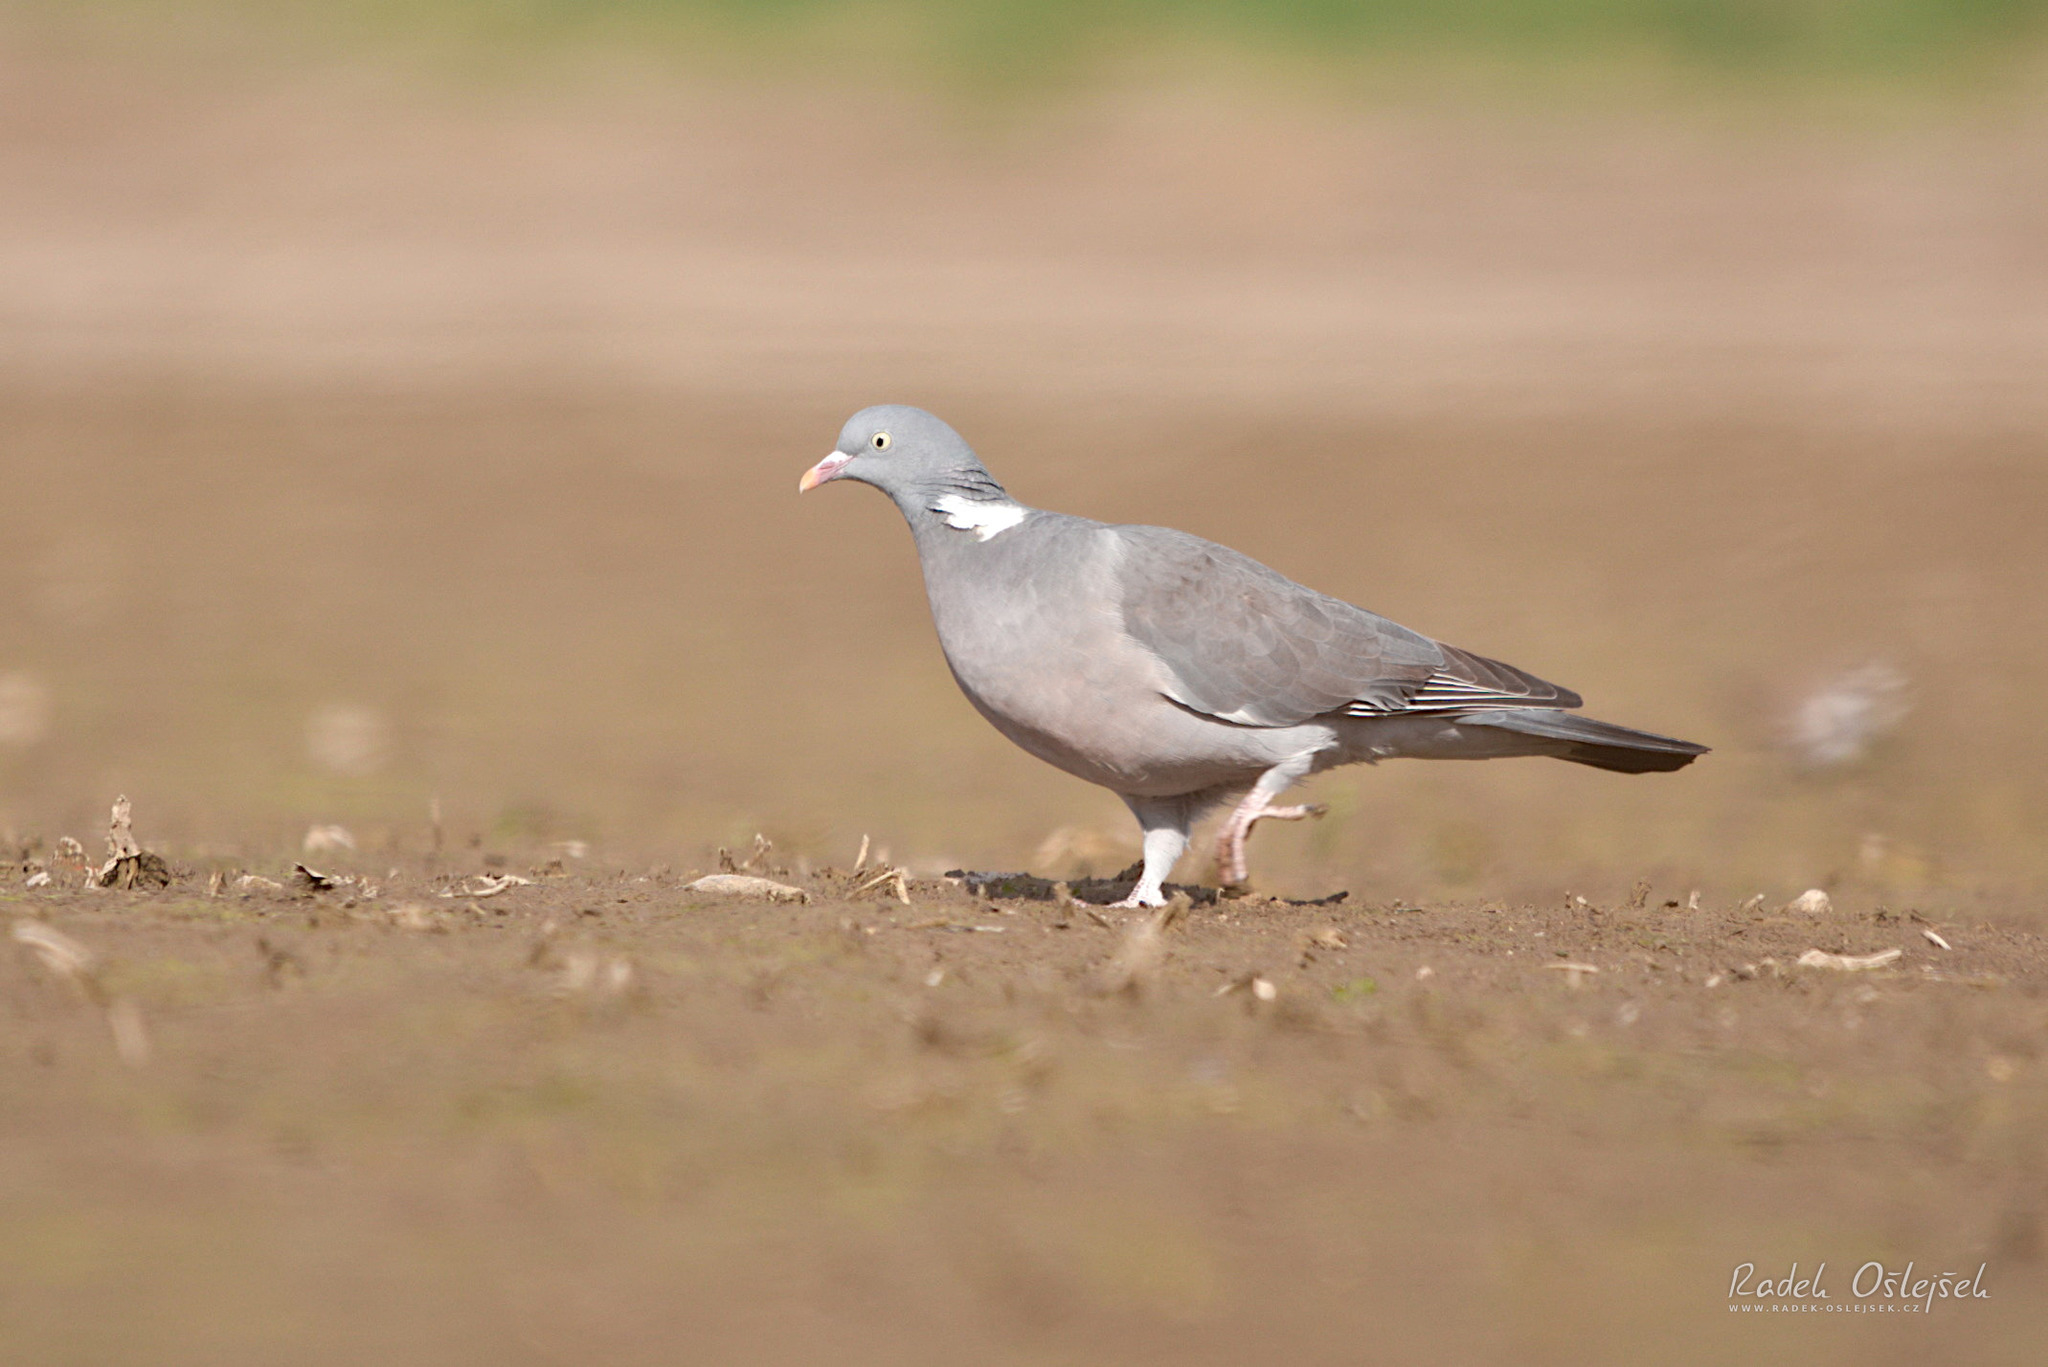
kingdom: Animalia
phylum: Chordata
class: Aves
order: Columbiformes
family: Columbidae
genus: Columba
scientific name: Columba palumbus
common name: Common wood pigeon
